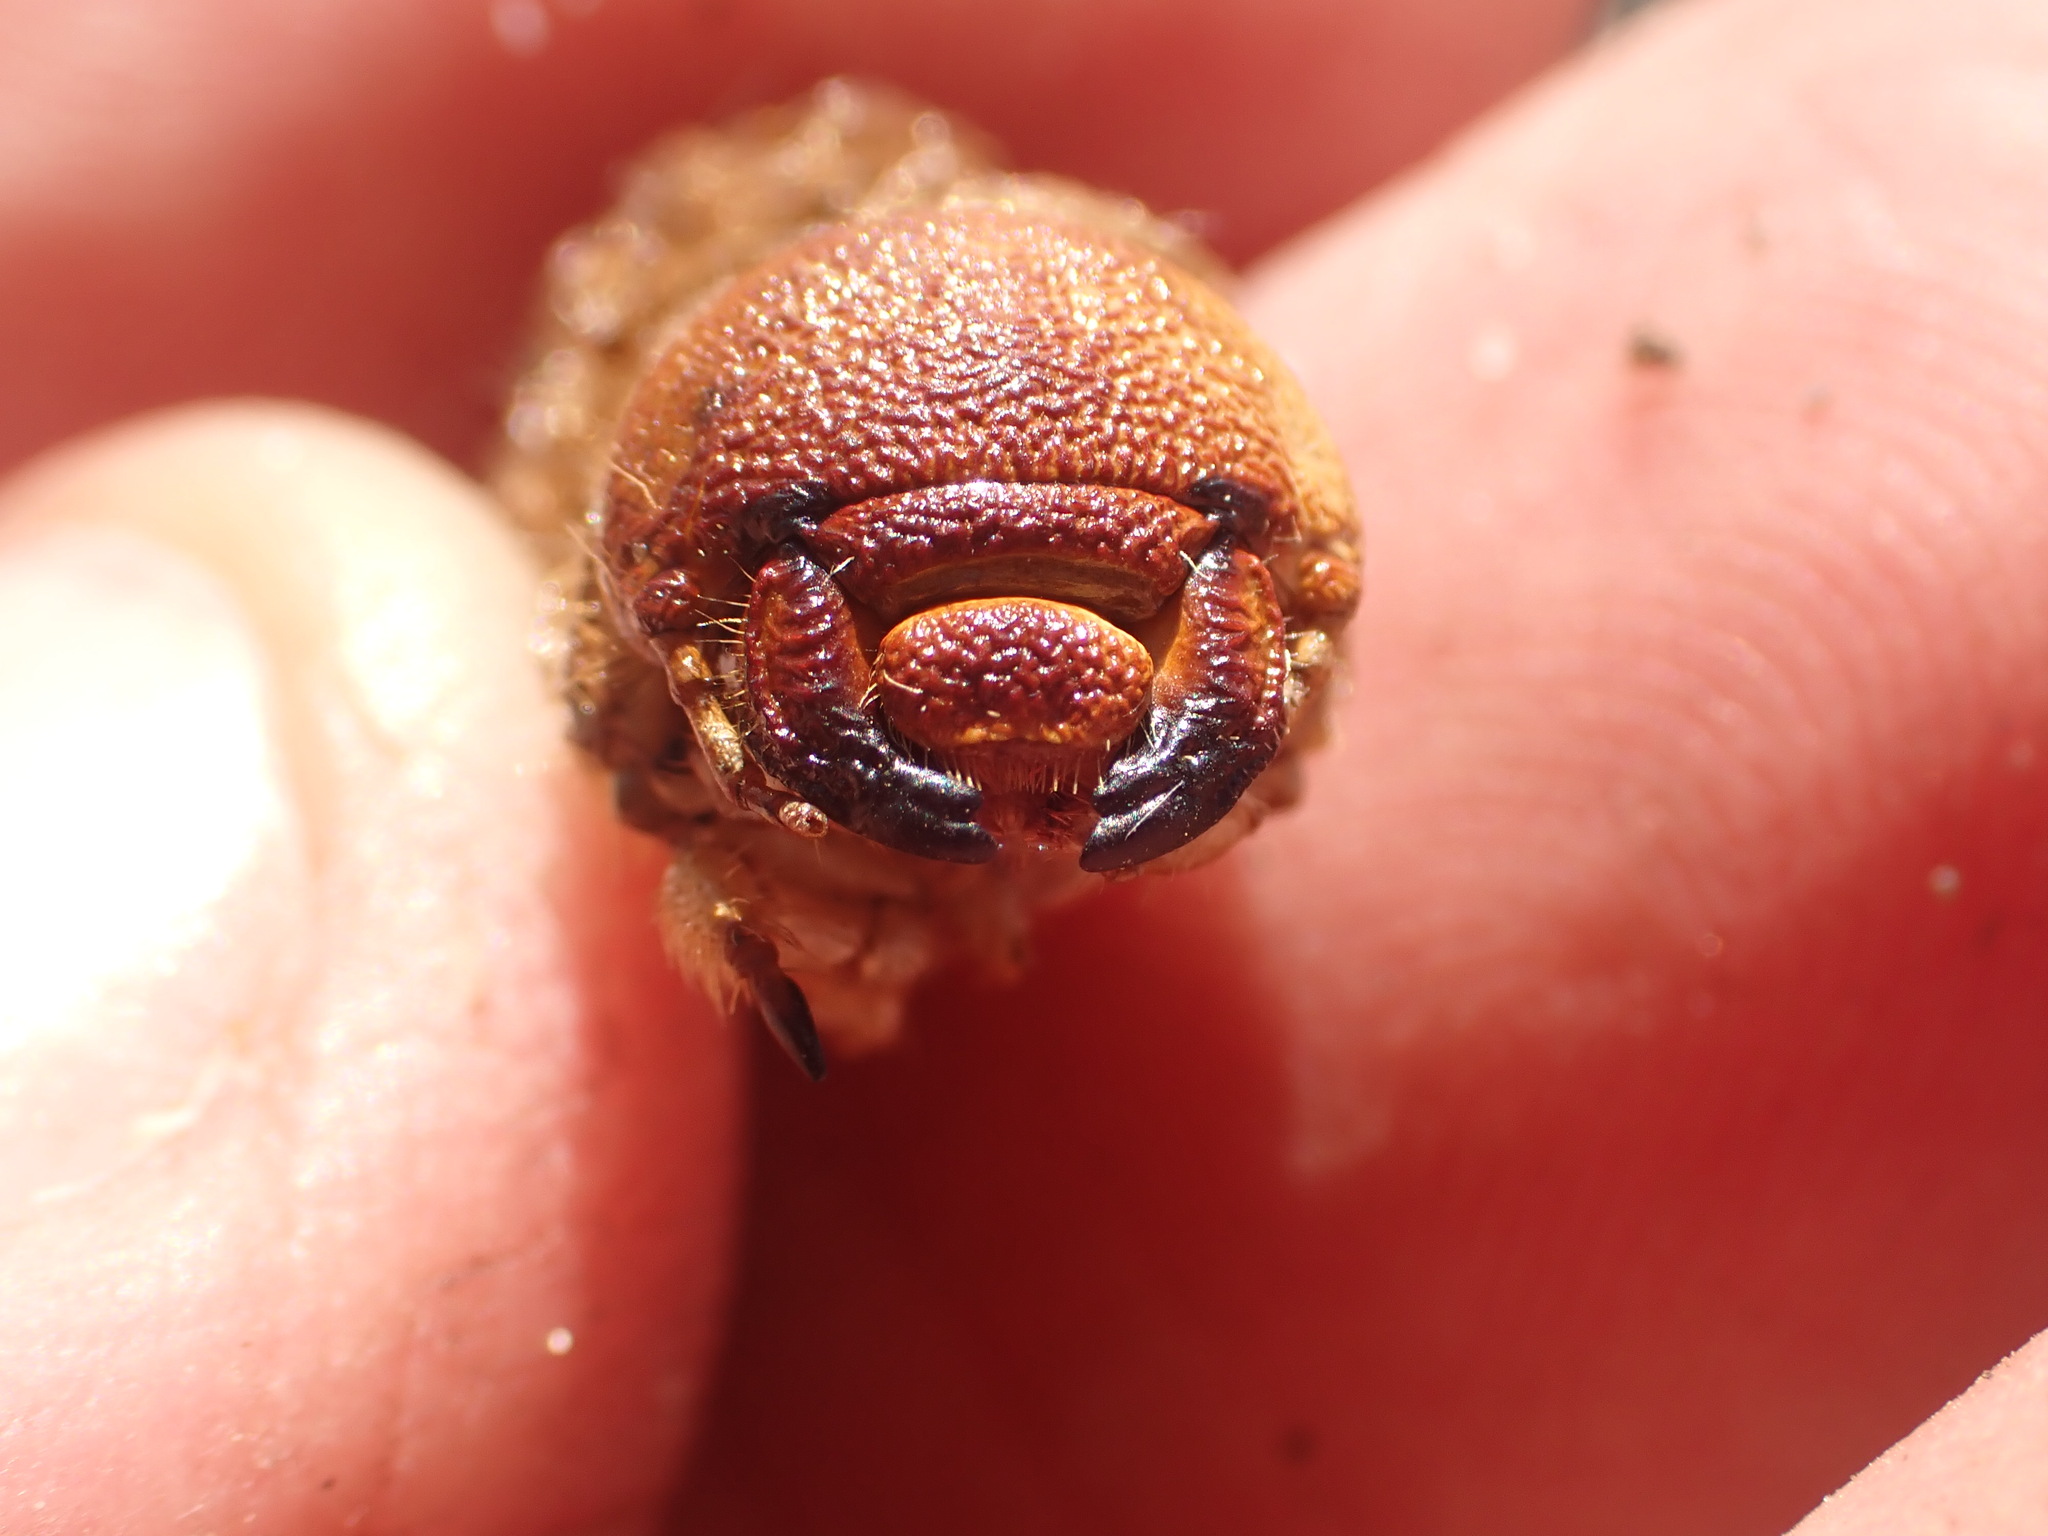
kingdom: Animalia
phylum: Arthropoda
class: Insecta
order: Coleoptera
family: Scarabaeidae
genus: Pericoptus
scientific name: Pericoptus truncatus
